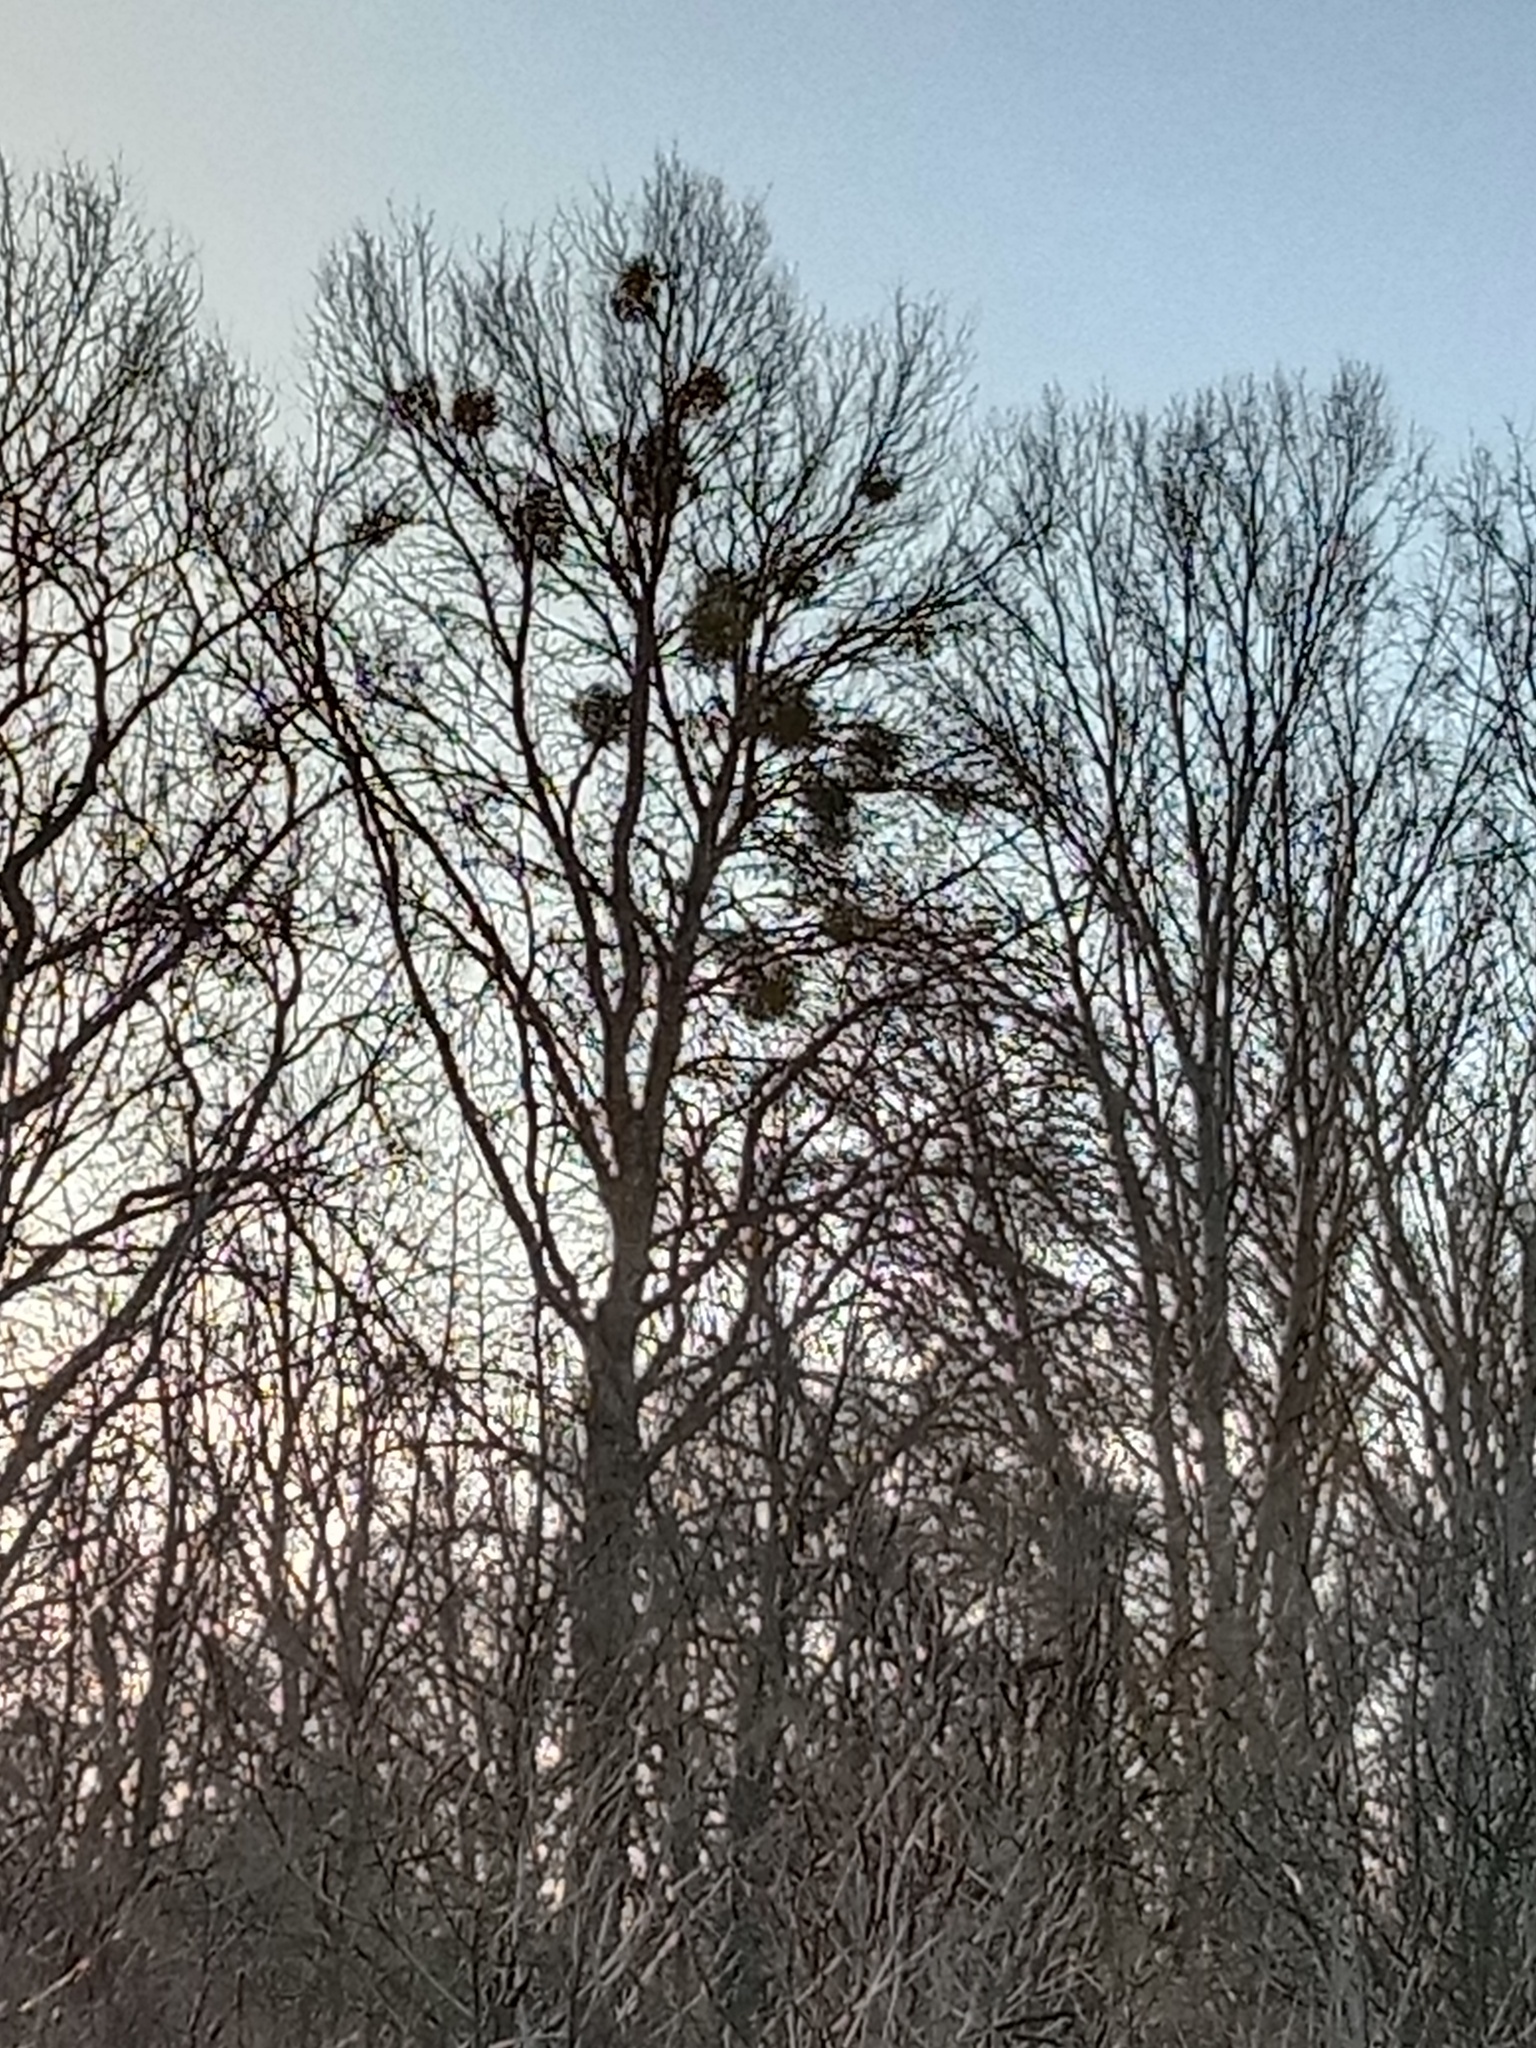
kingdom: Plantae
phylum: Tracheophyta
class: Magnoliopsida
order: Santalales
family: Viscaceae
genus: Viscum
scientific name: Viscum album
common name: Mistletoe
